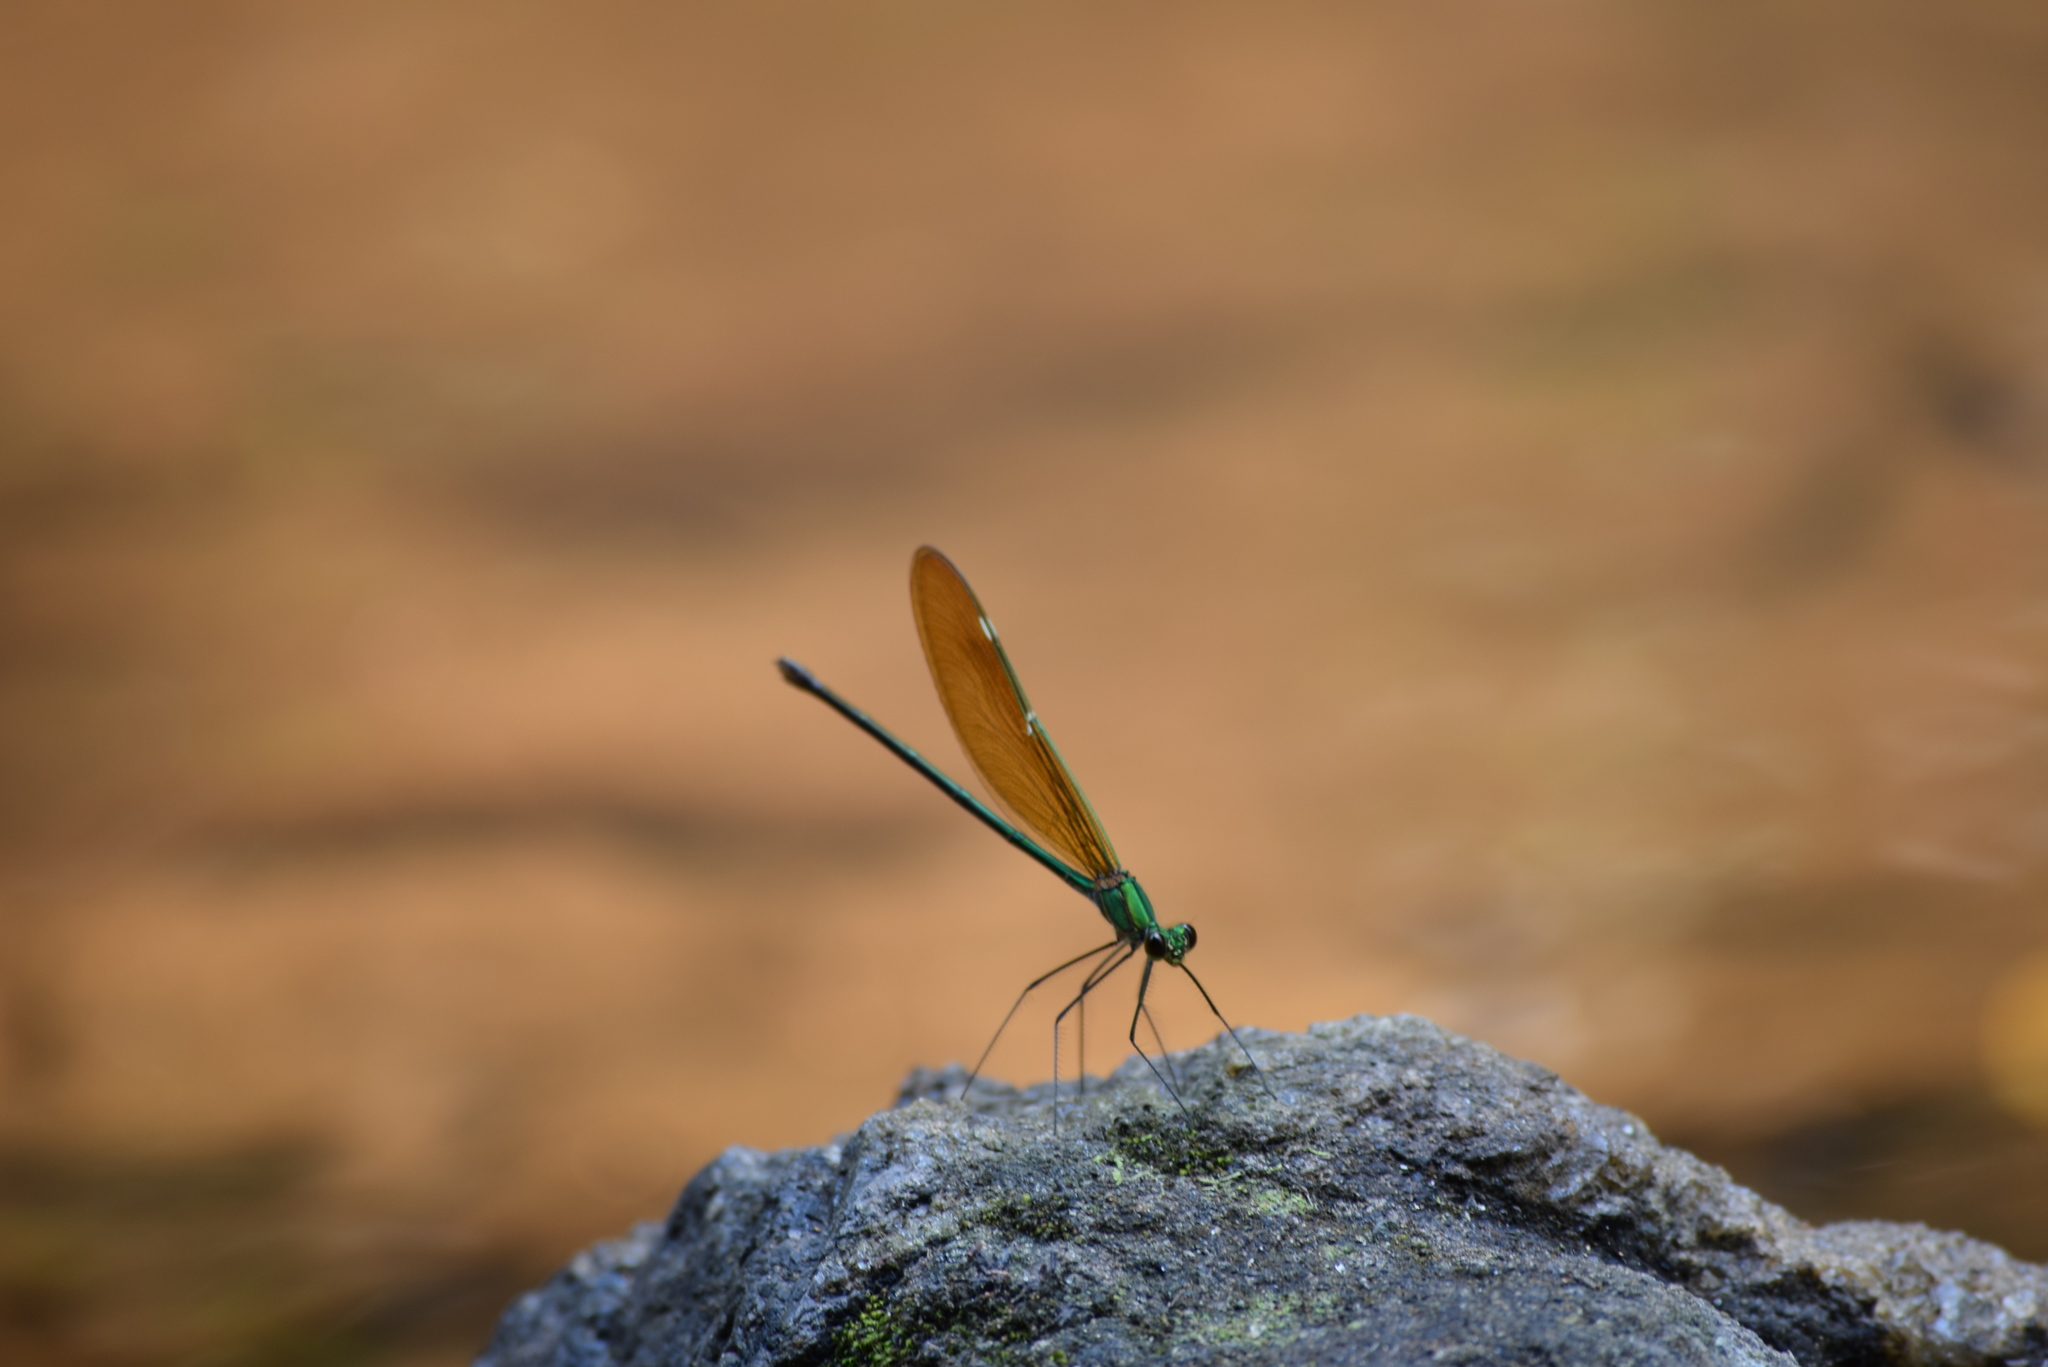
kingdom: Animalia
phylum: Arthropoda
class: Insecta
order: Odonata
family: Calopterygidae
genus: Neurobasis
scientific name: Neurobasis chinensis
